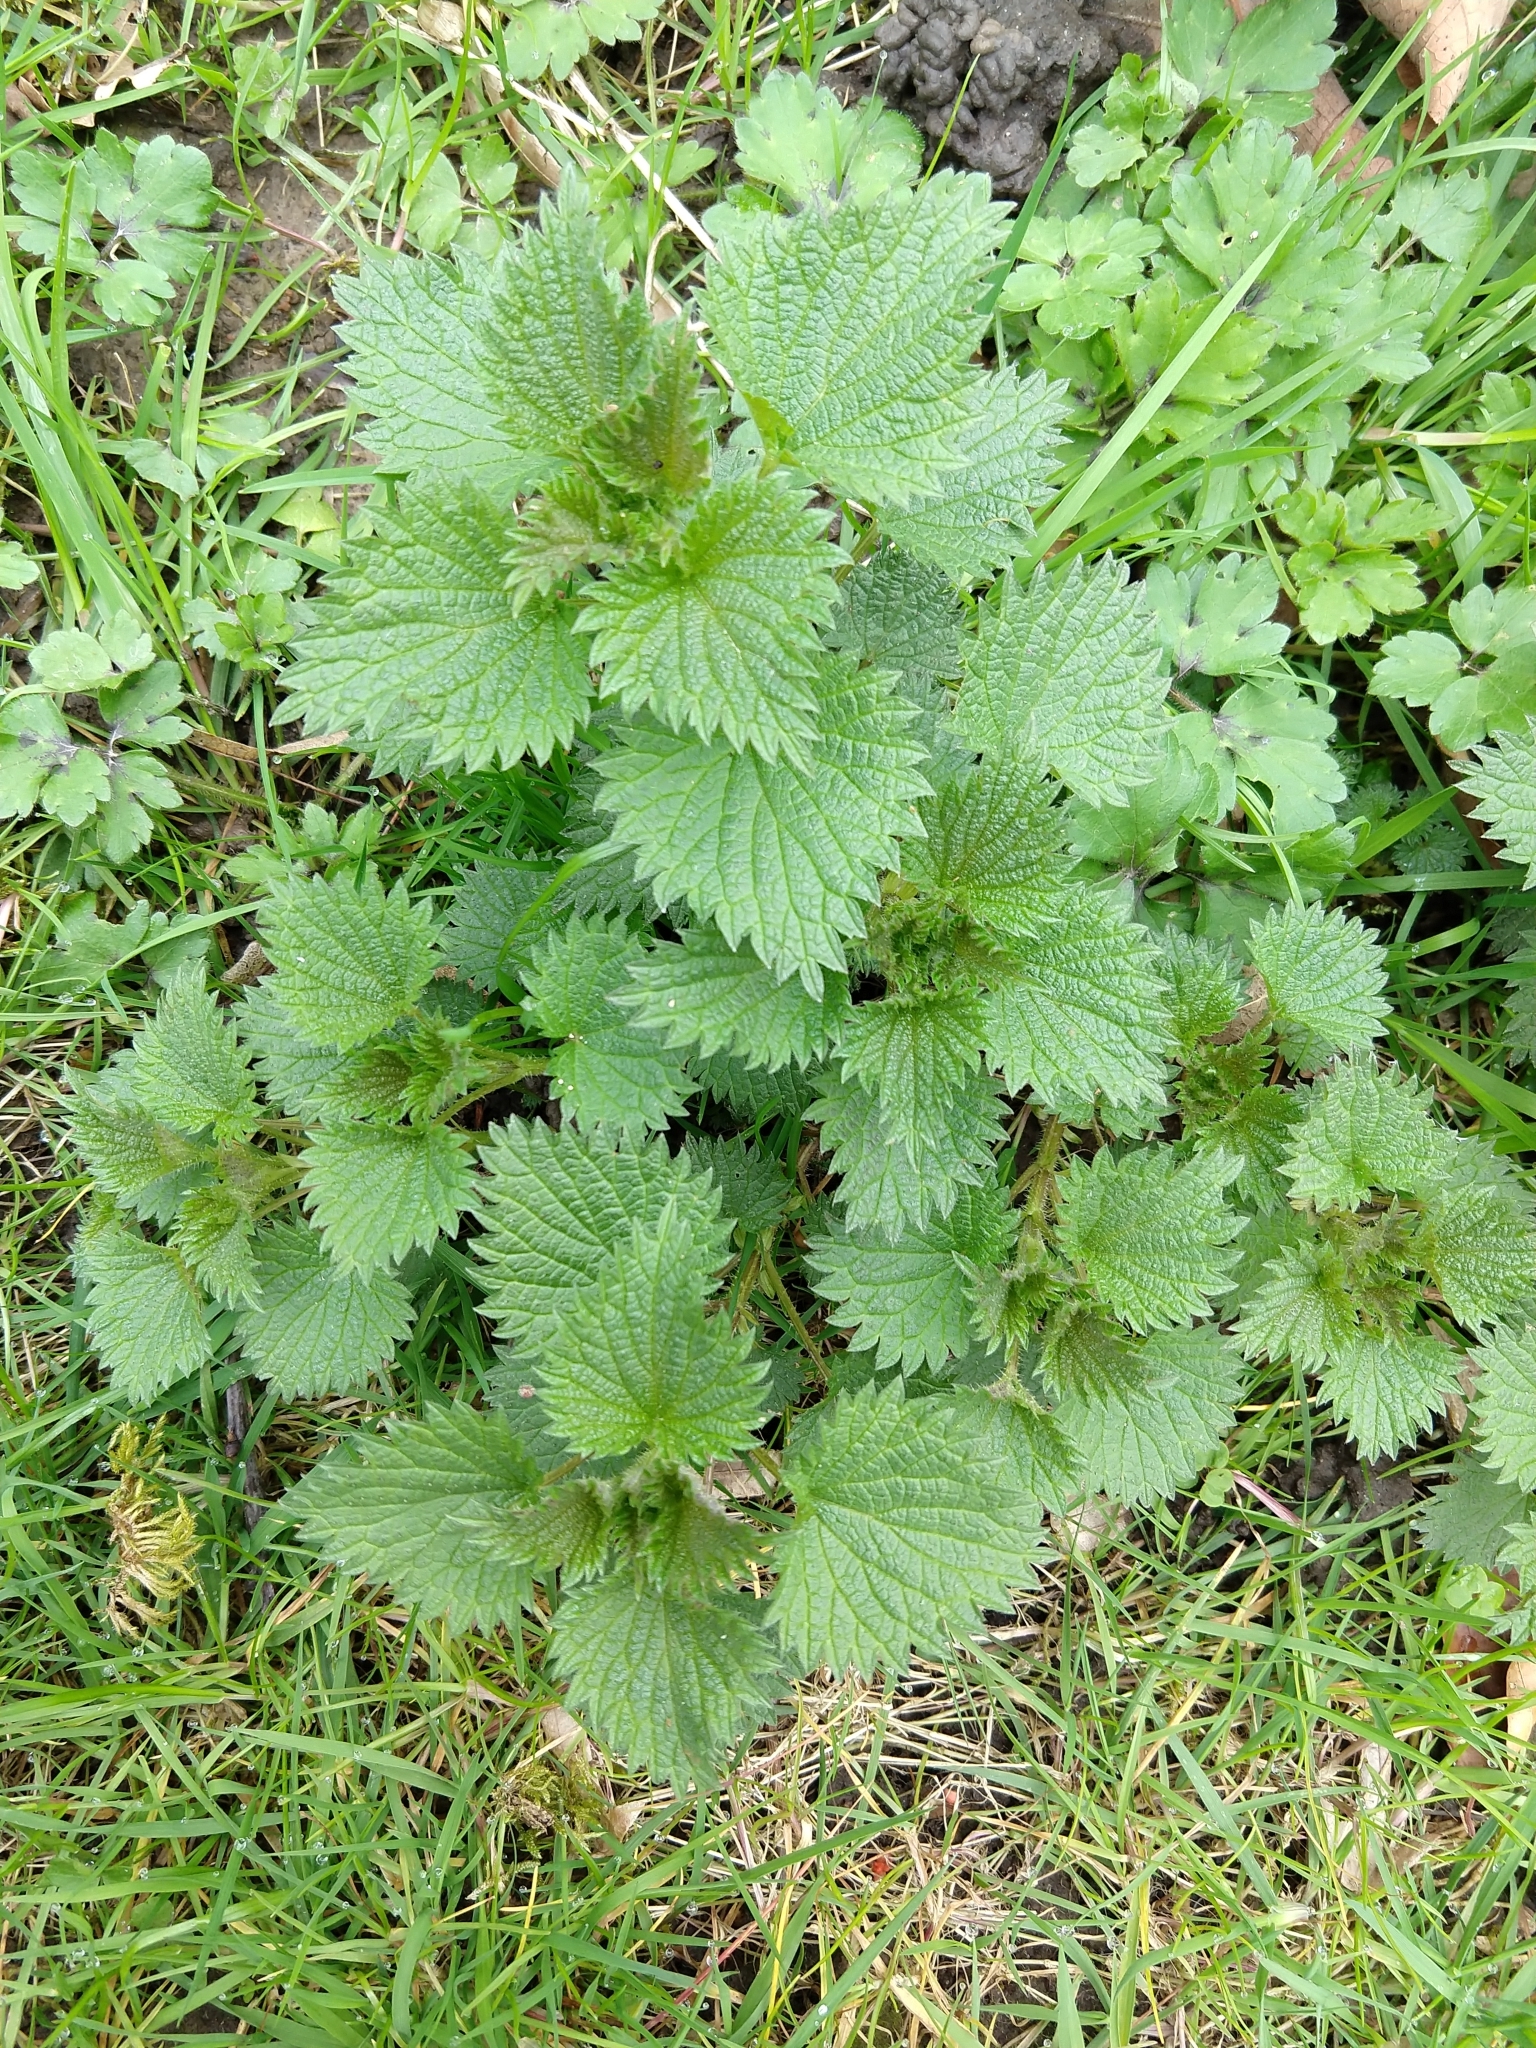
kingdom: Plantae
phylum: Tracheophyta
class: Magnoliopsida
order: Rosales
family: Urticaceae
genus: Urtica
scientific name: Urtica dioica
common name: Common nettle
